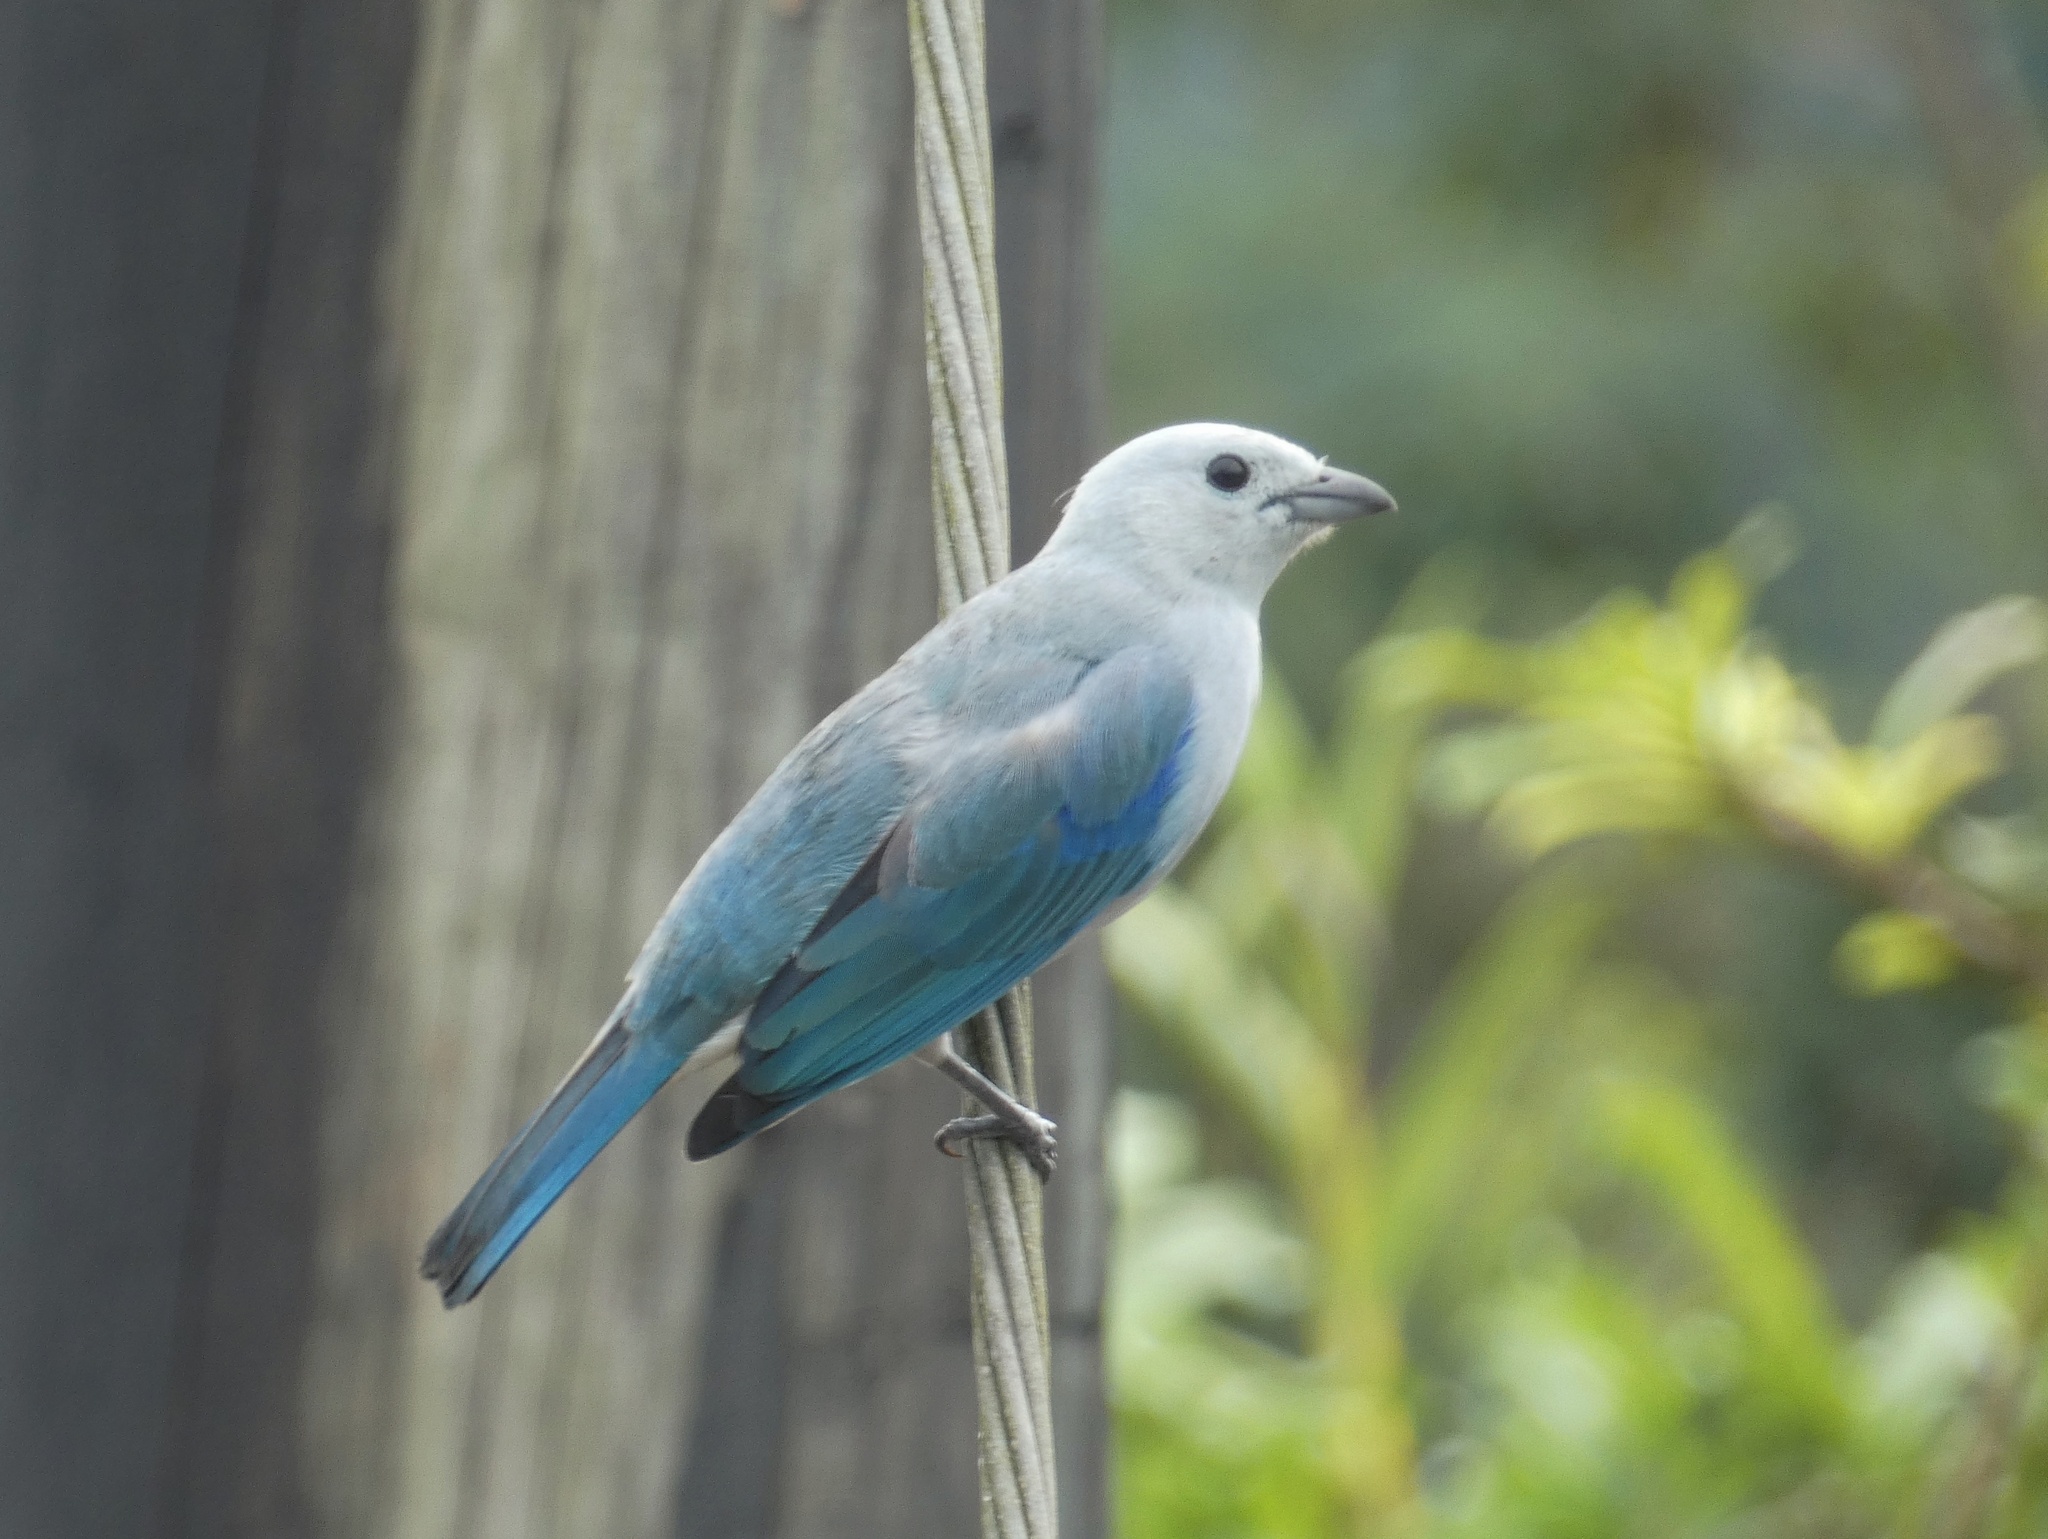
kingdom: Animalia
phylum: Chordata
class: Aves
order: Passeriformes
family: Thraupidae
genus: Thraupis
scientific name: Thraupis episcopus
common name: Blue-grey tanager
